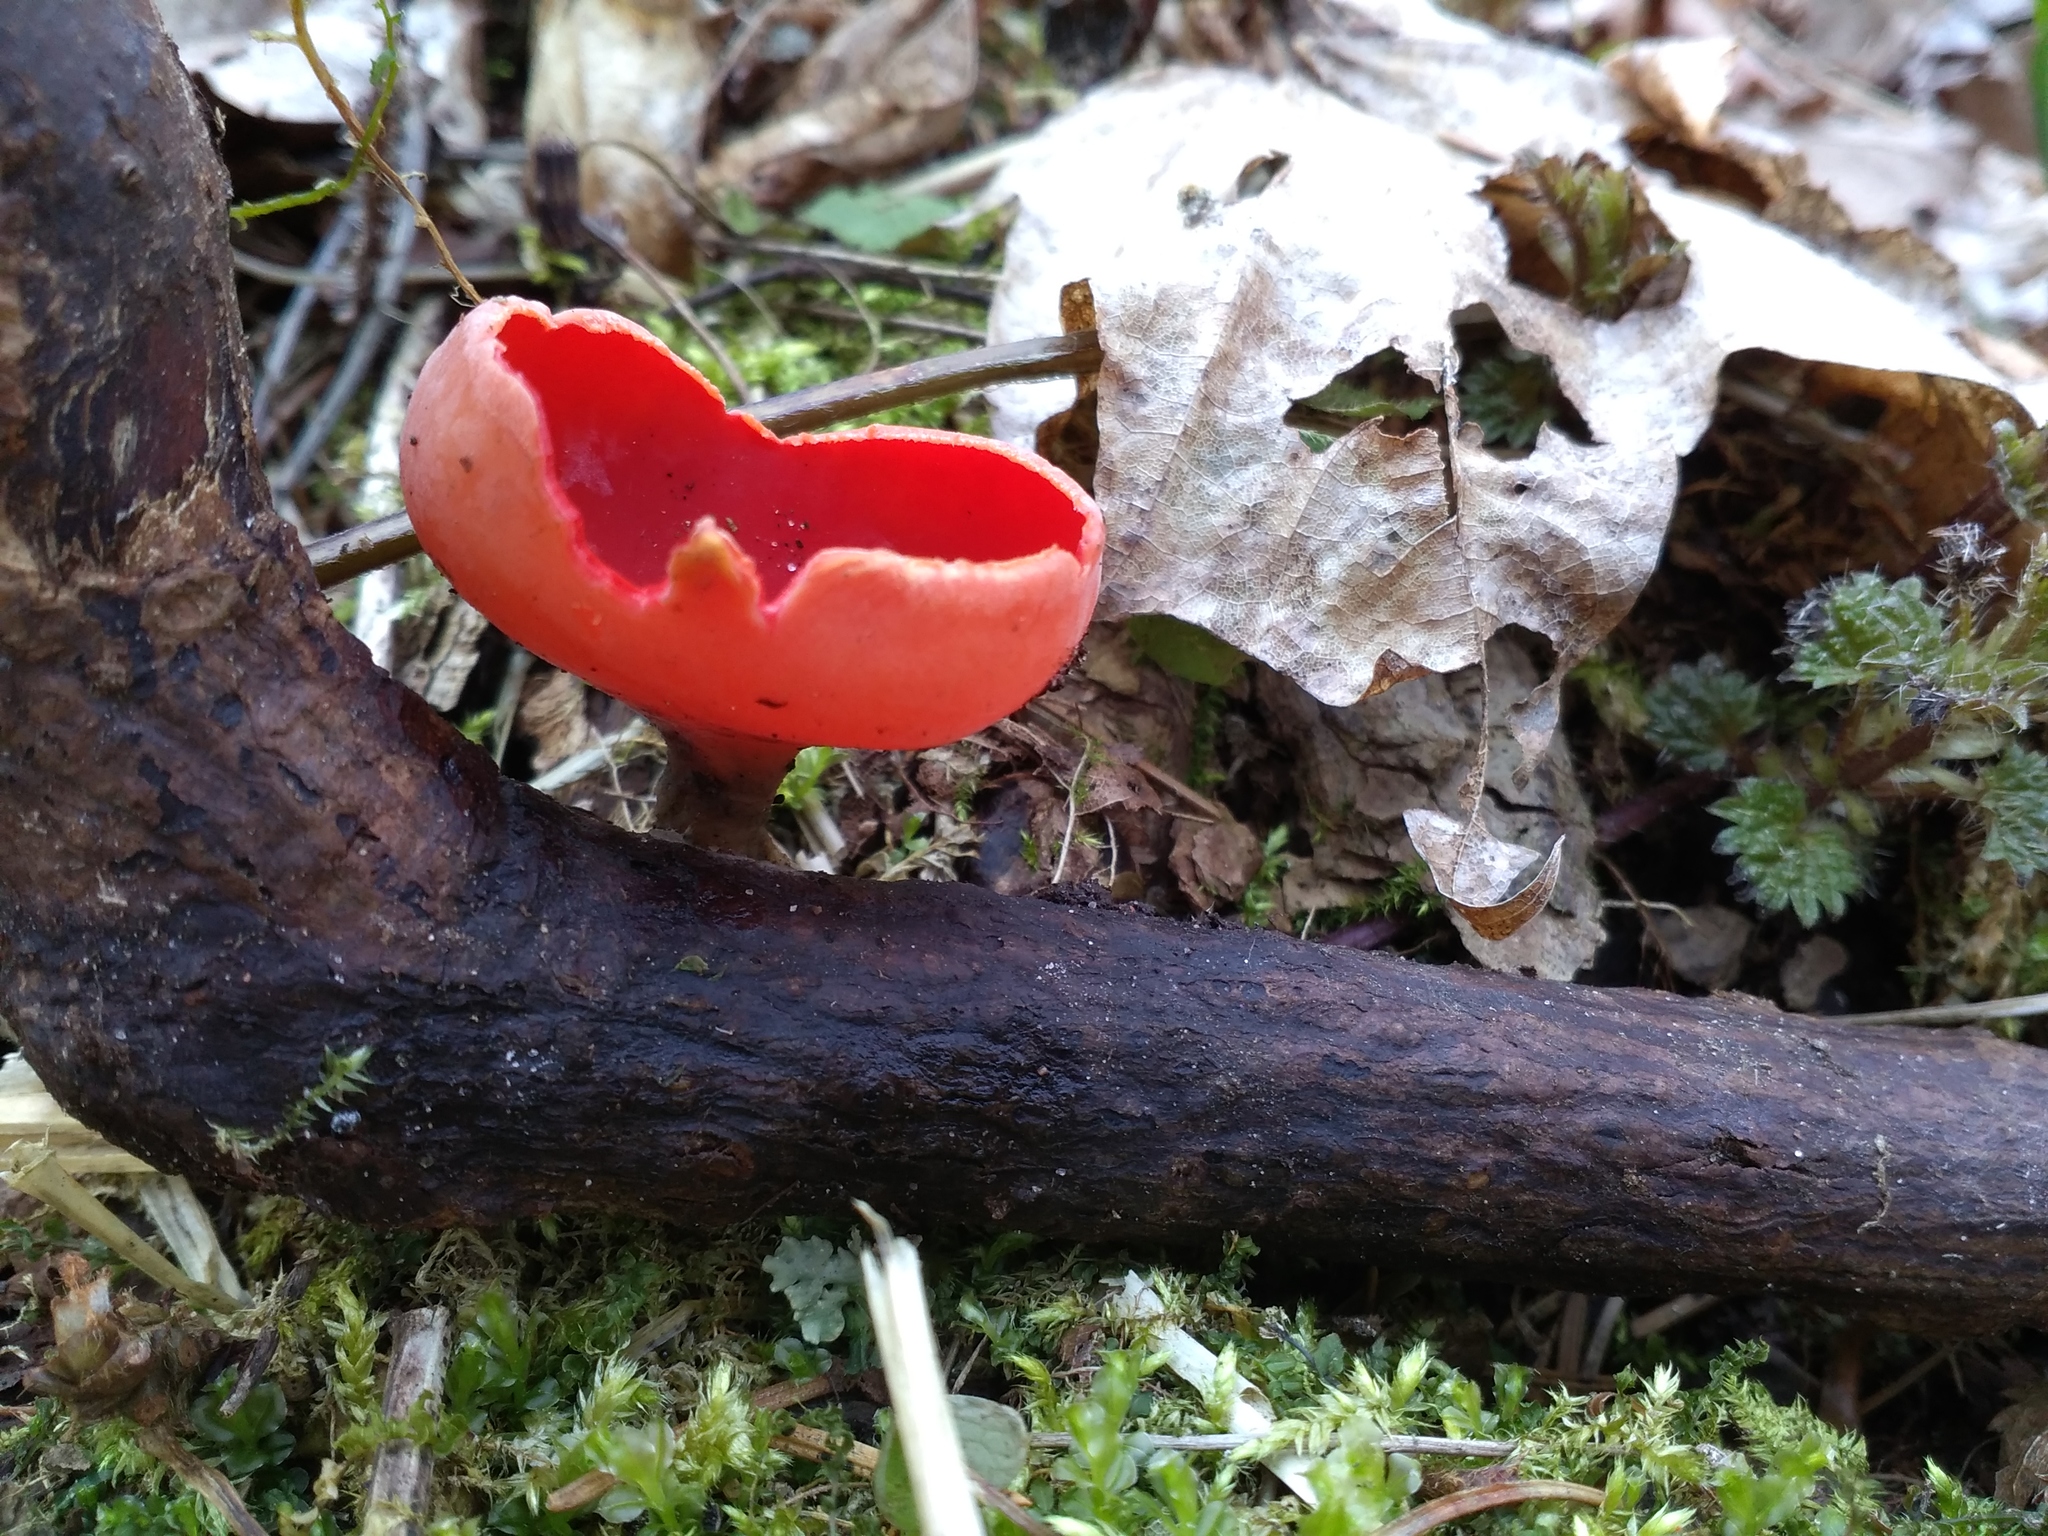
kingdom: Fungi
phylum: Ascomycota
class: Pezizomycetes
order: Pezizales
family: Sarcoscyphaceae
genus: Sarcoscypha
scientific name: Sarcoscypha
